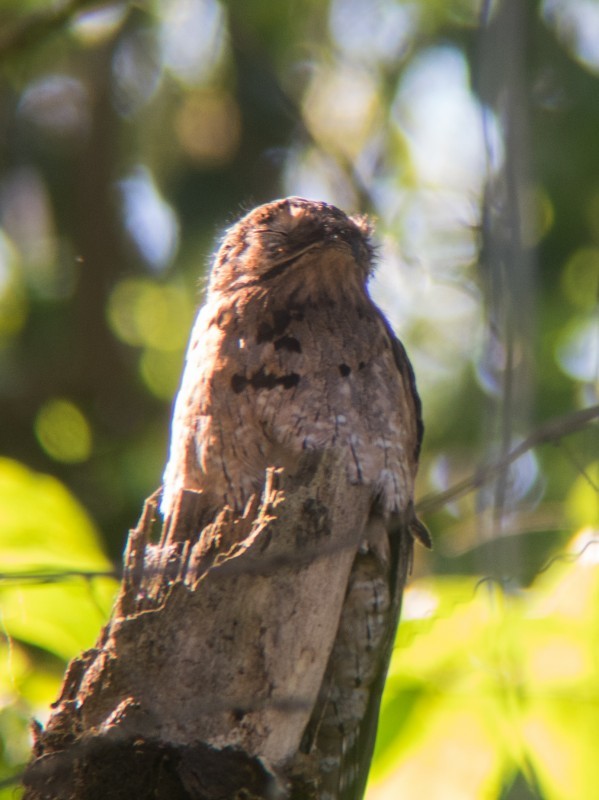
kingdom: Animalia
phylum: Chordata
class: Aves
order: Nyctibiiformes
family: Nyctibiidae
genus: Nyctibius
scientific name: Nyctibius griseus
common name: Common potoo
